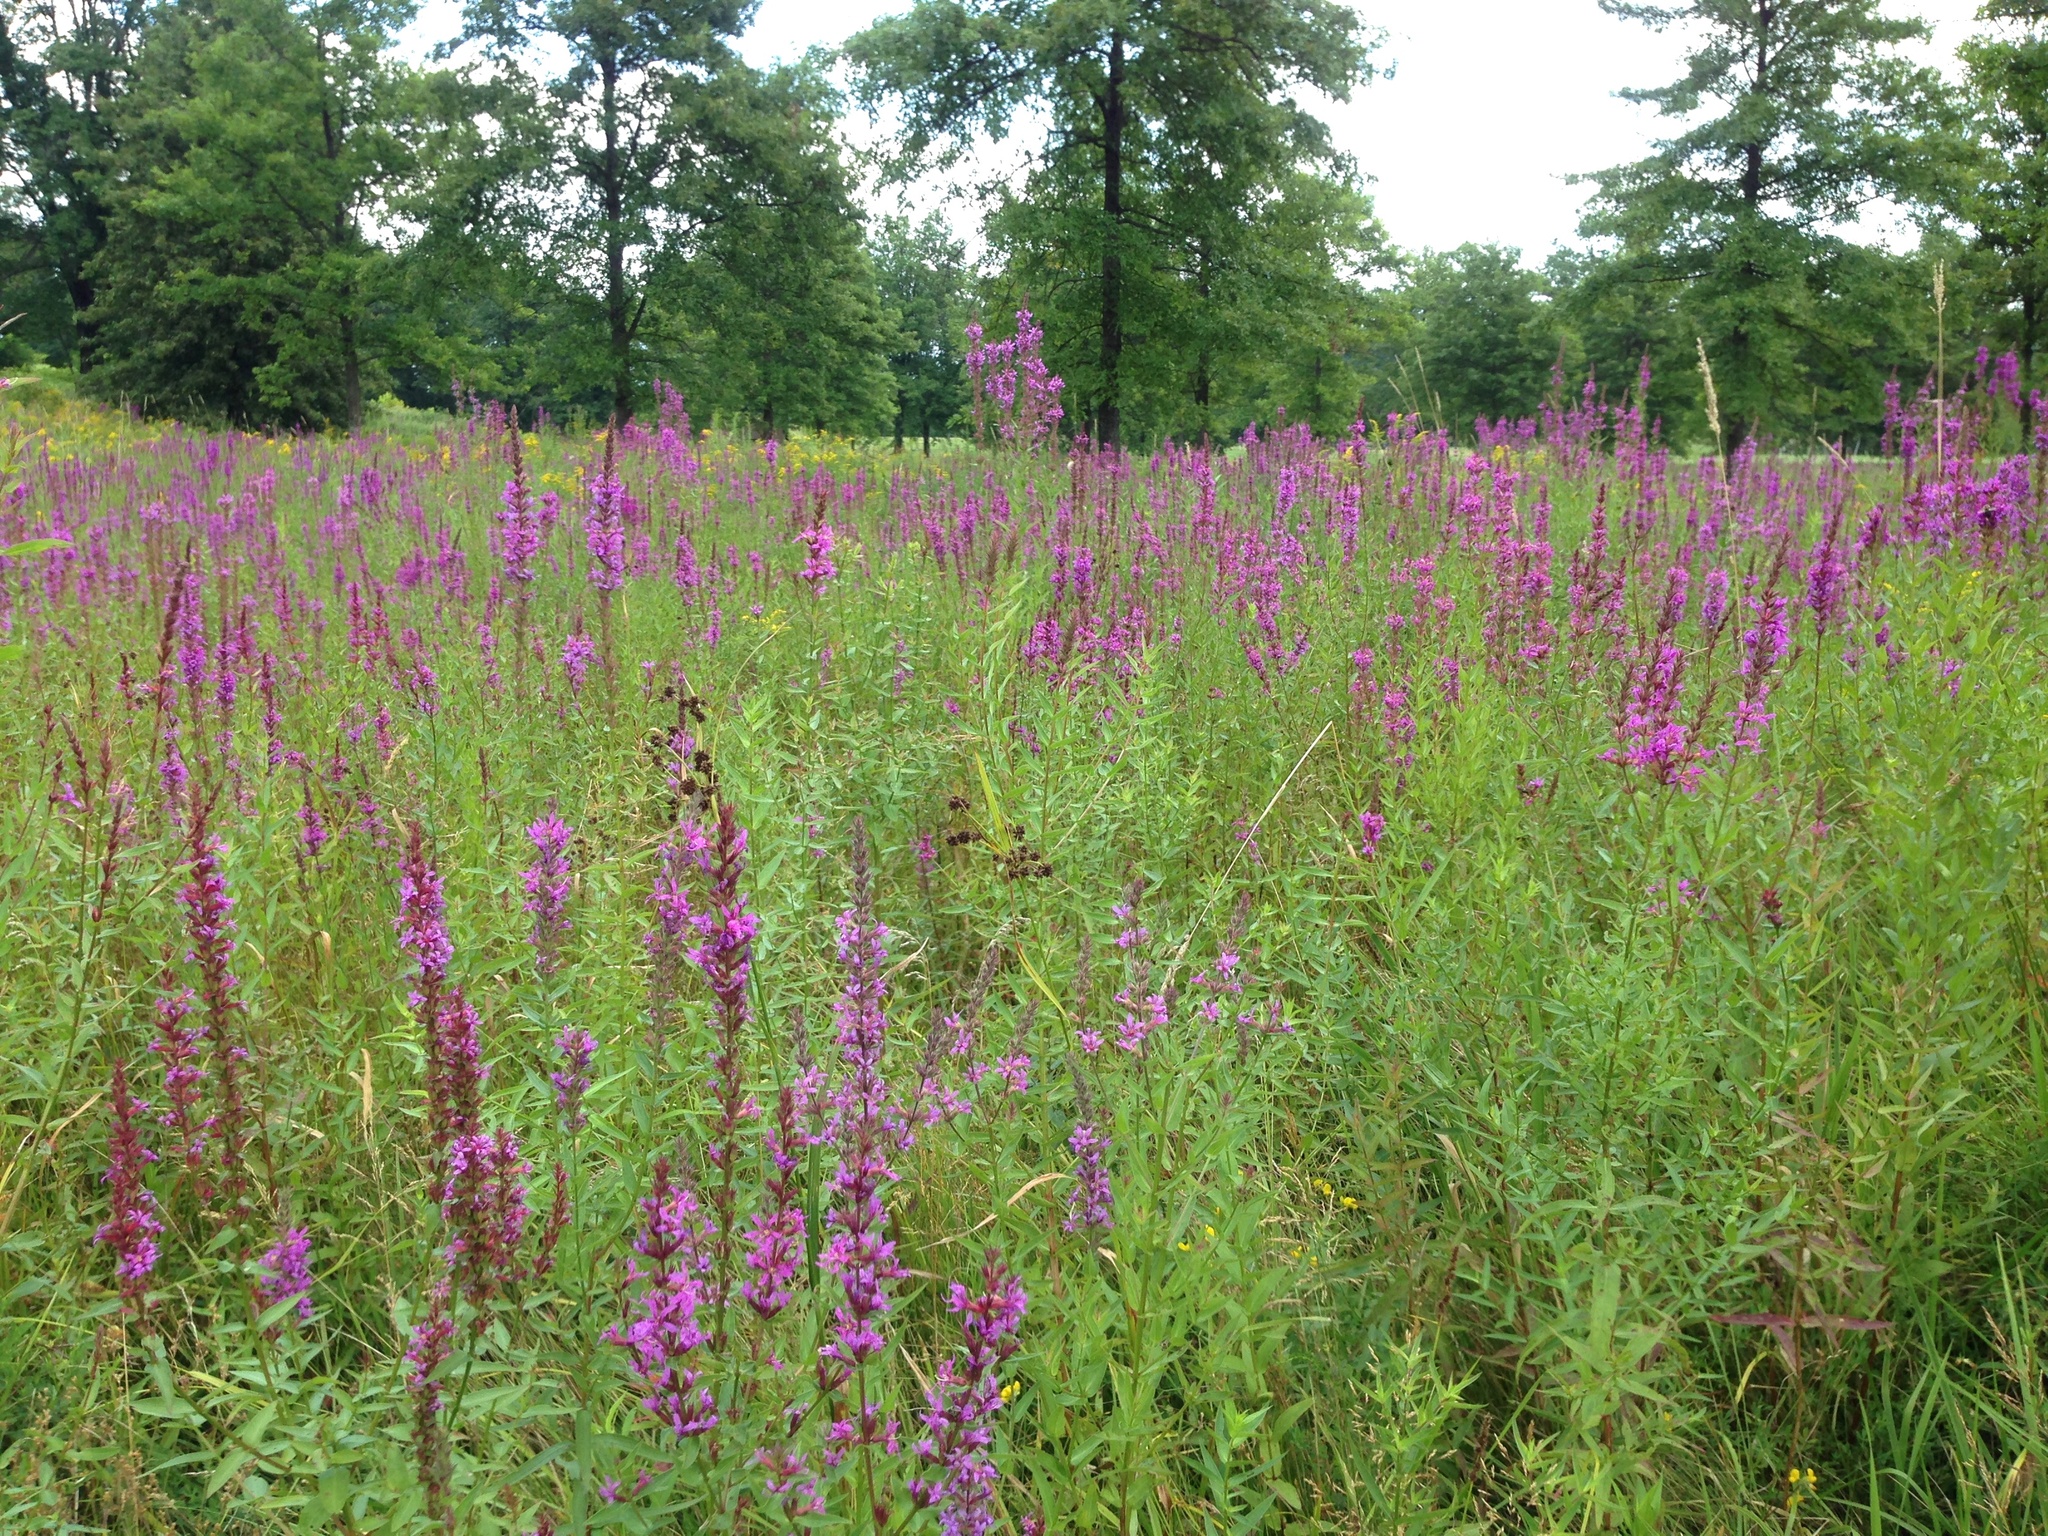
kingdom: Plantae
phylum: Tracheophyta
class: Magnoliopsida
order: Myrtales
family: Lythraceae
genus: Lythrum
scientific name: Lythrum salicaria
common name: Purple loosestrife
